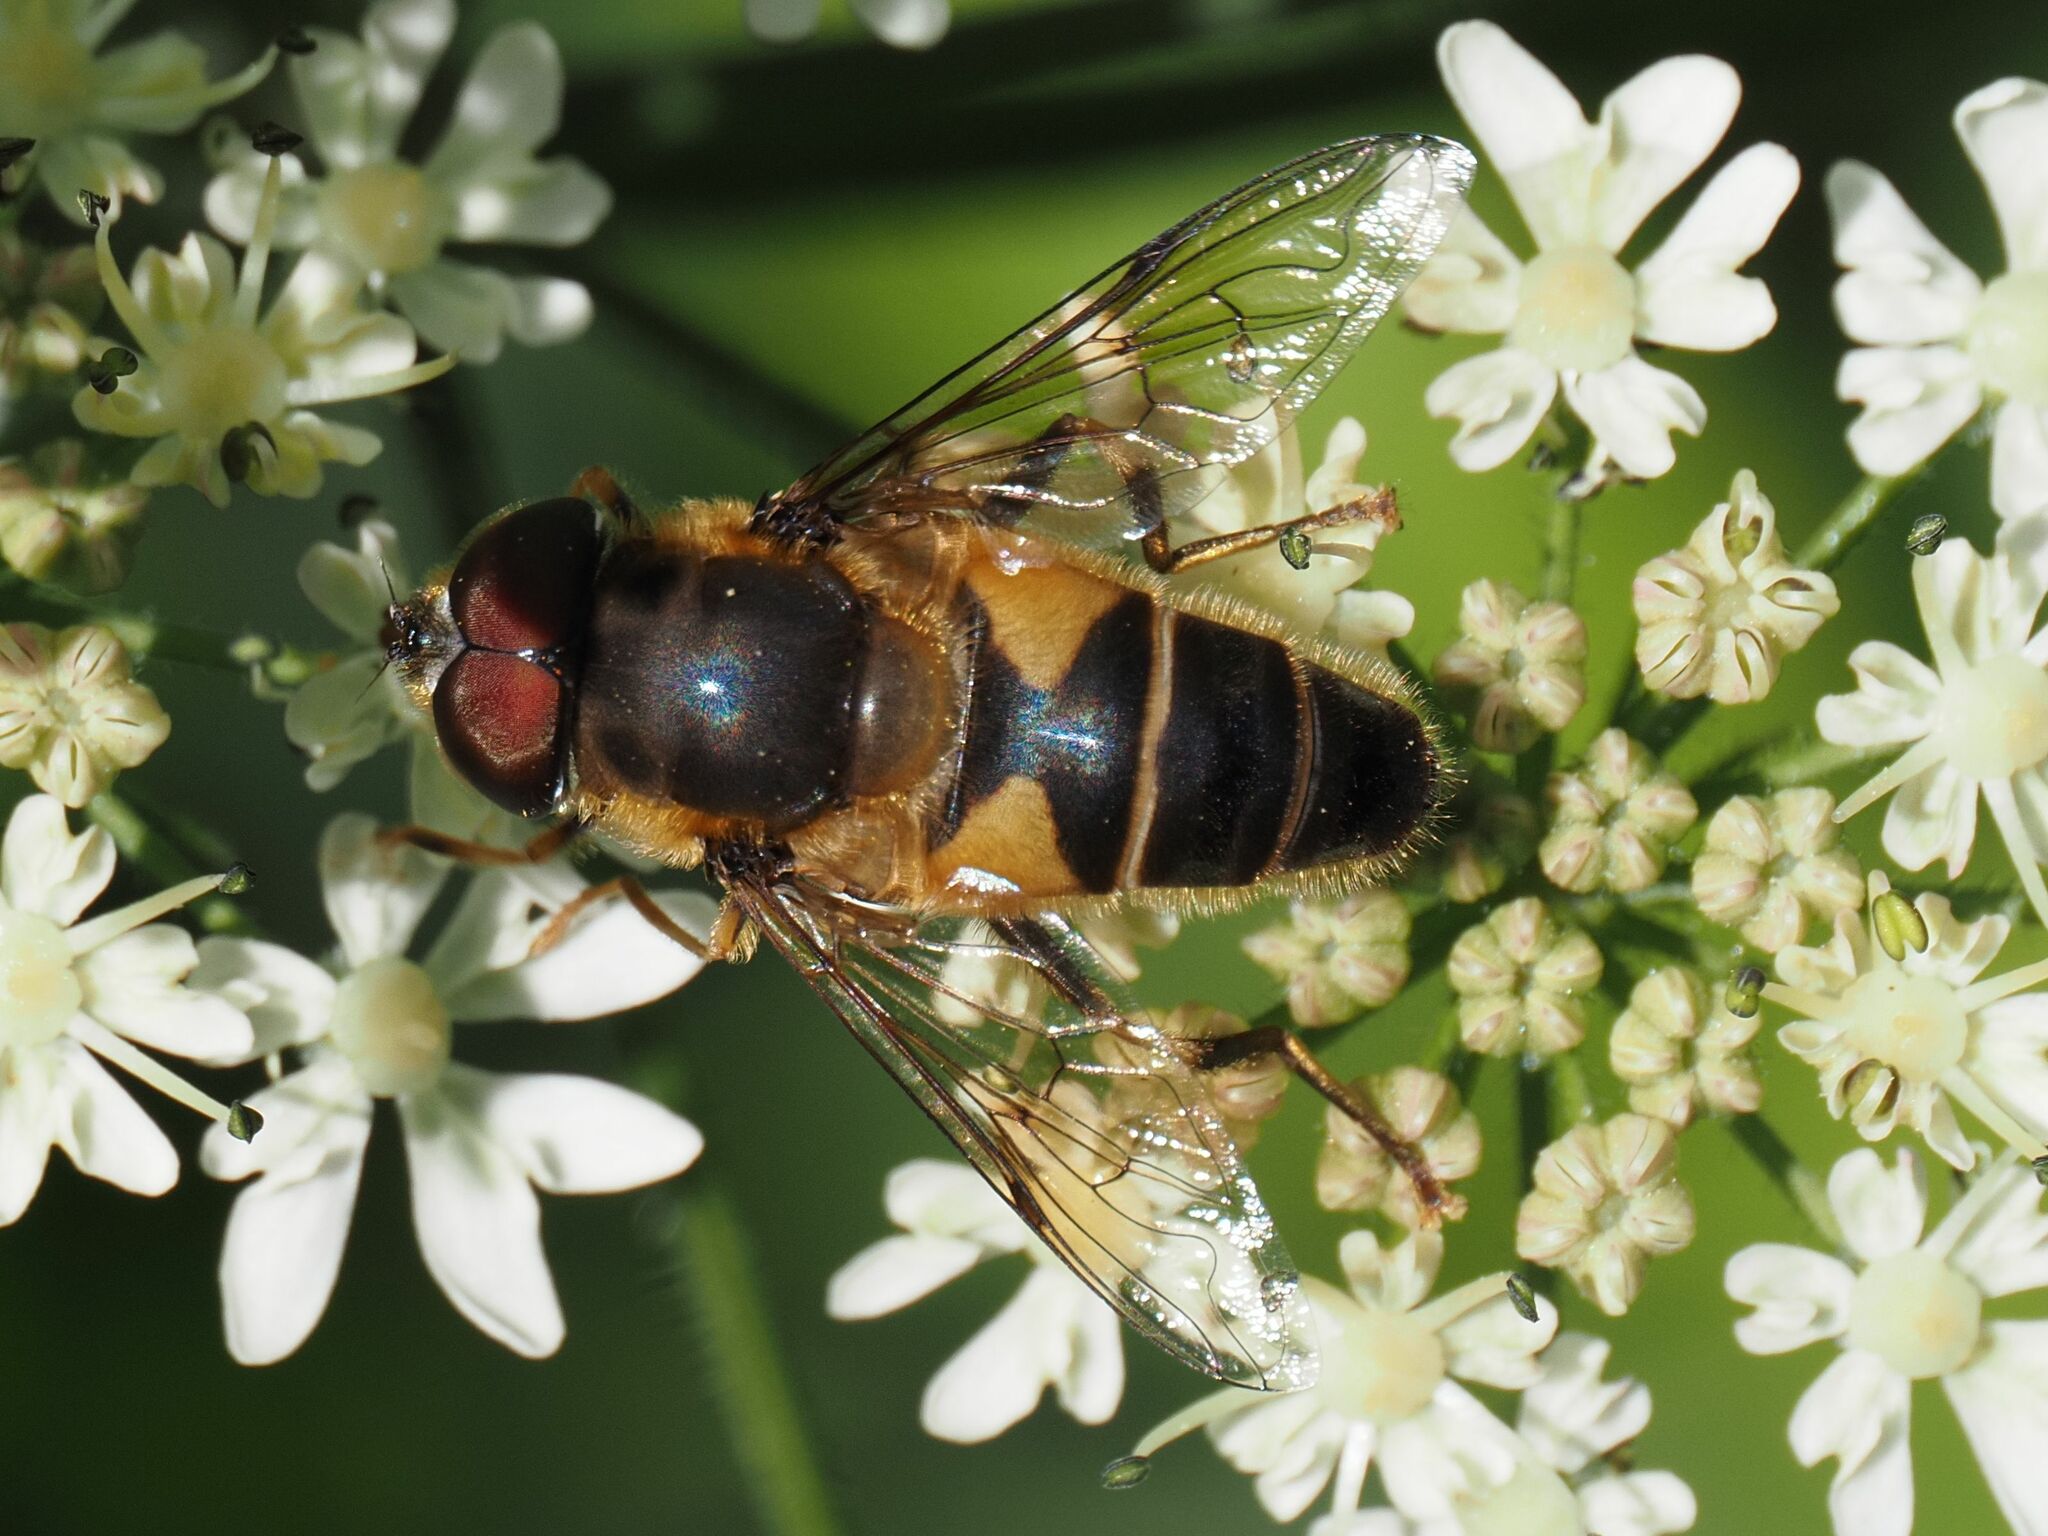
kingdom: Animalia
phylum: Arthropoda
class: Insecta
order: Diptera
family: Syrphidae
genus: Eristalis
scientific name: Eristalis pertinax
